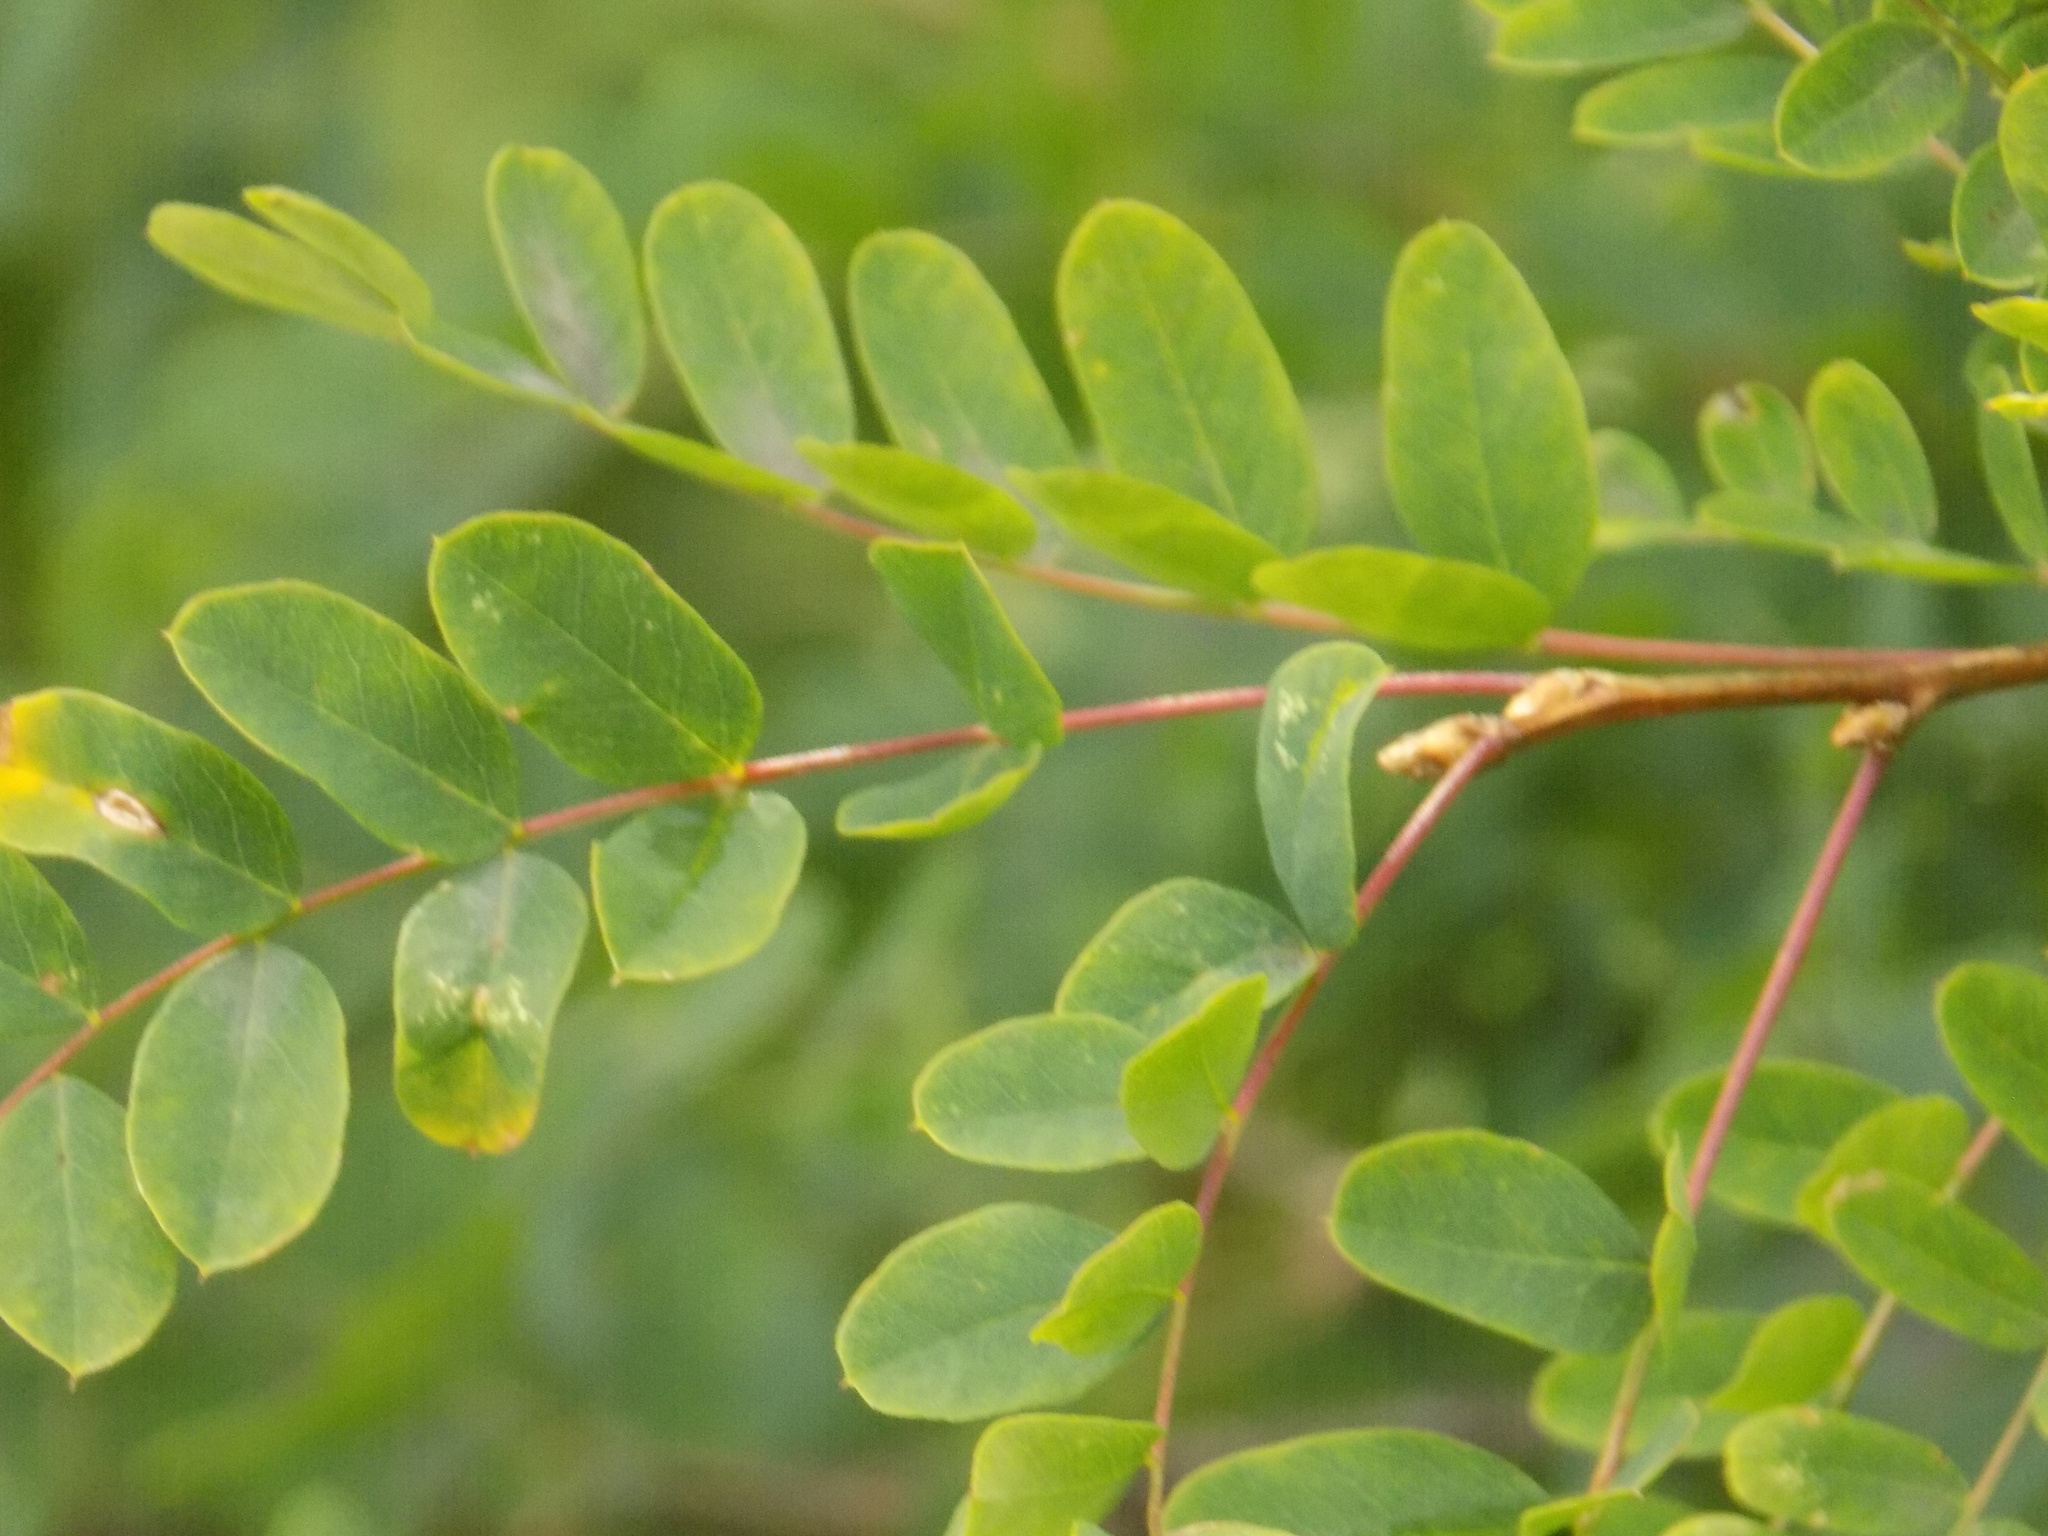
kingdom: Plantae
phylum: Tracheophyta
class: Magnoliopsida
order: Fabales
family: Fabaceae
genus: Caragana
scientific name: Caragana arborescens
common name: Siberian peashrub
